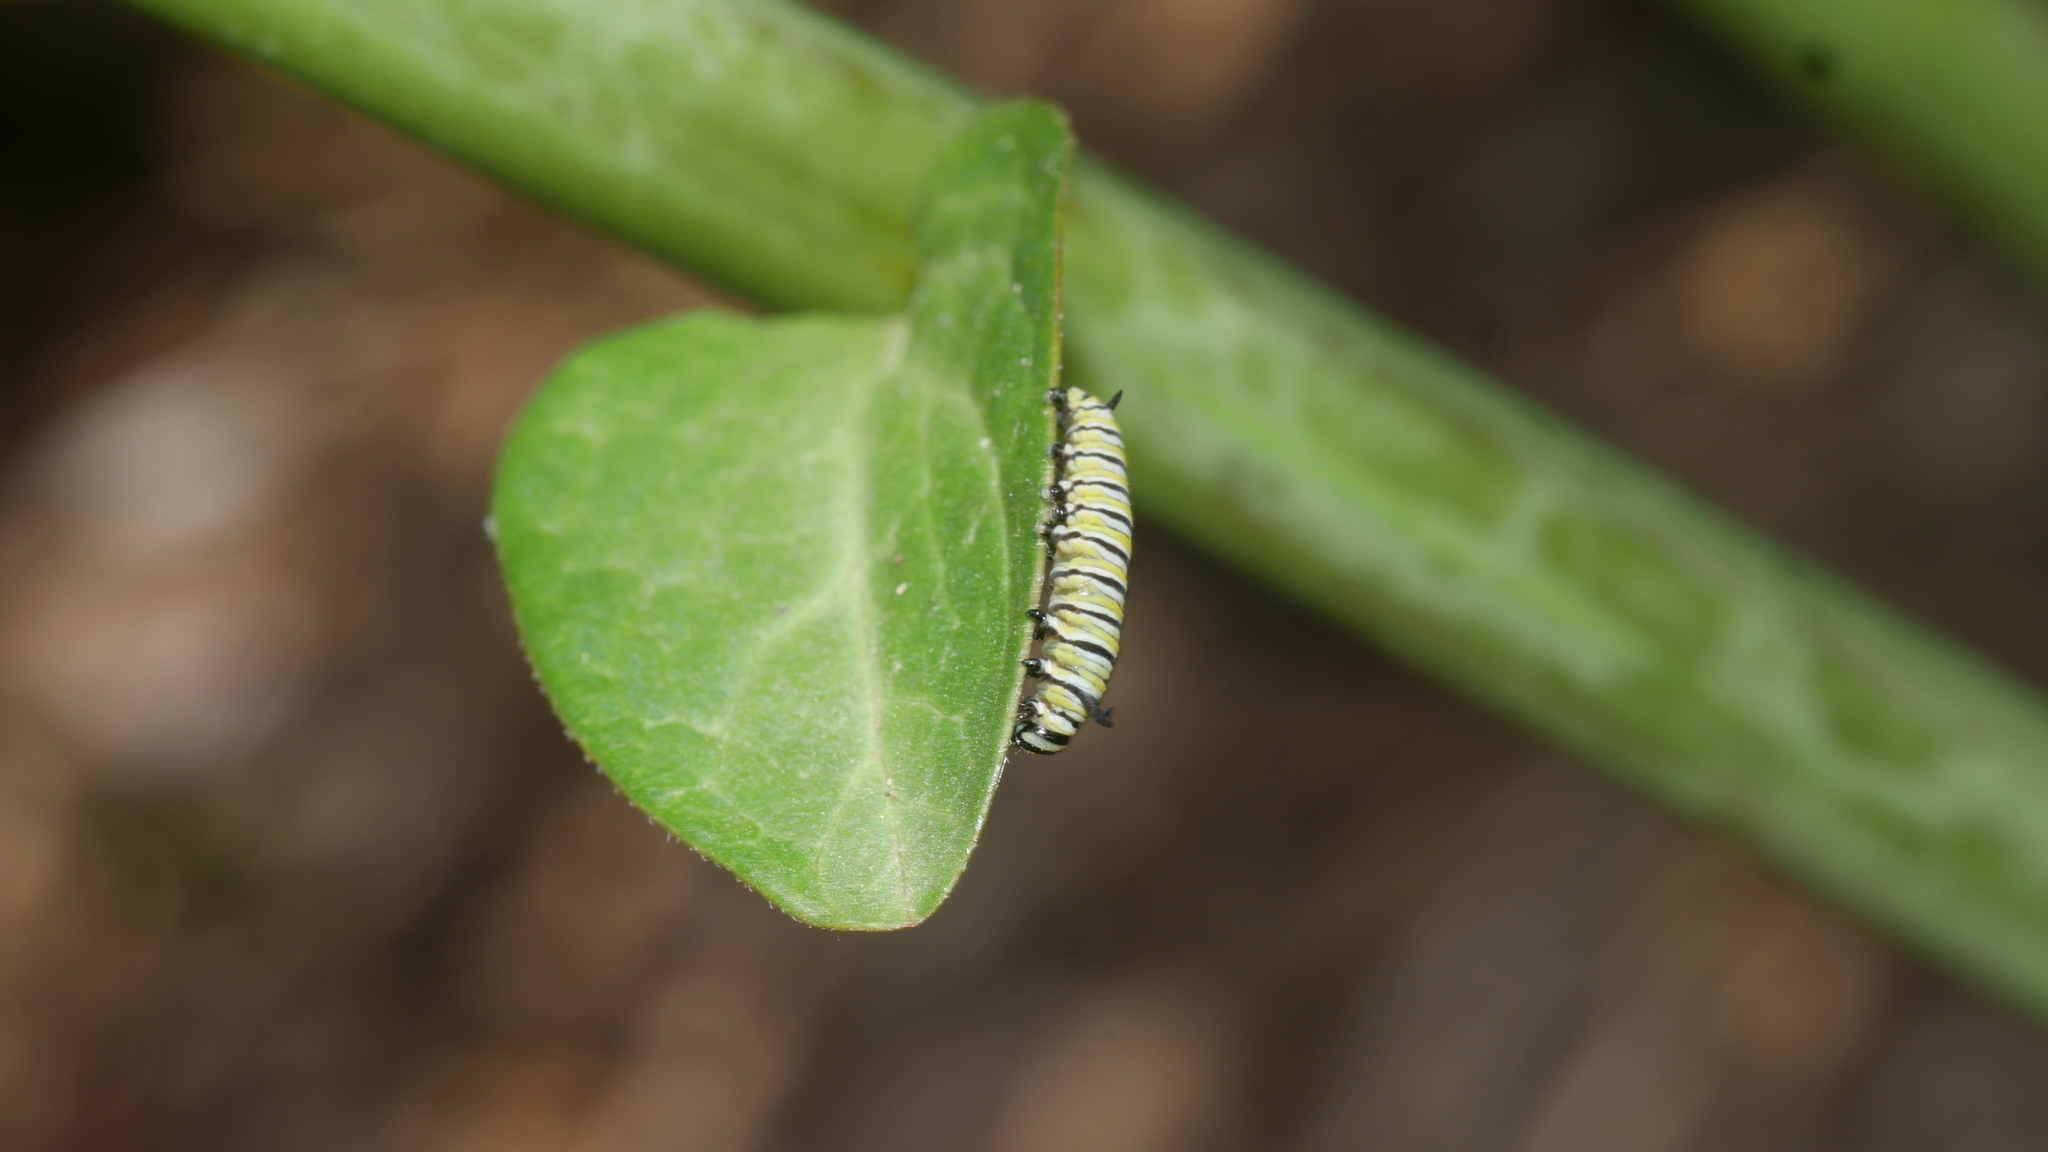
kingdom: Animalia
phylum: Arthropoda
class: Insecta
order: Lepidoptera
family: Nymphalidae
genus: Danaus
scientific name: Danaus plexippus
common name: Monarch
